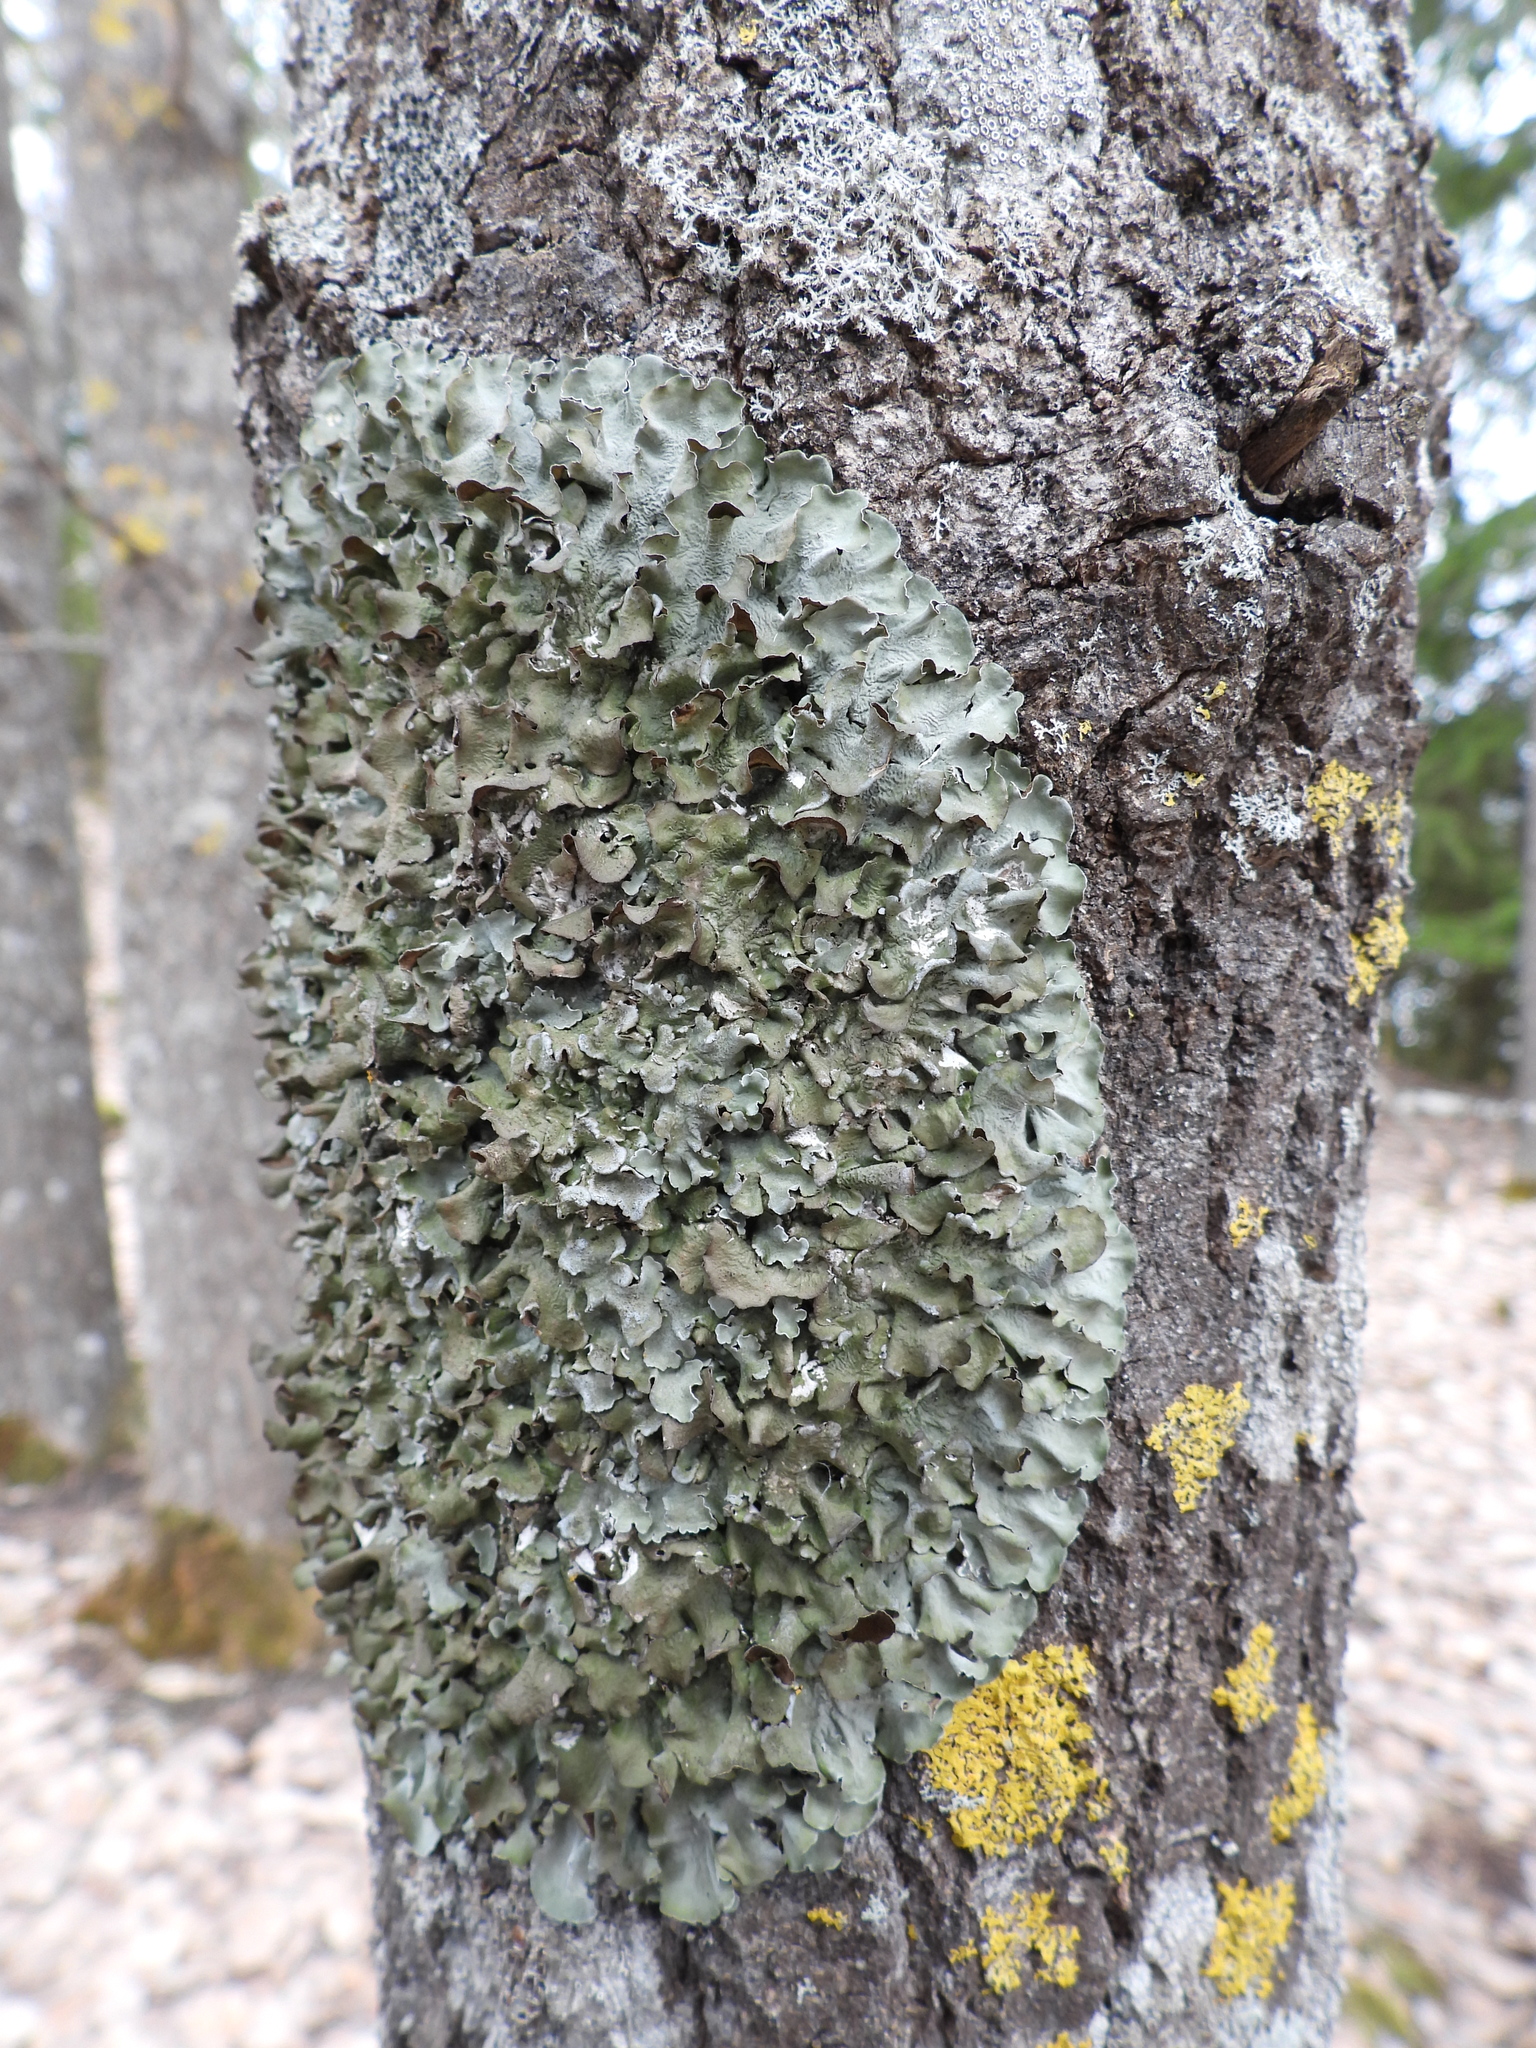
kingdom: Fungi
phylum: Ascomycota
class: Lecanoromycetes
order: Lecanorales
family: Parmeliaceae
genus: Pleurosticta
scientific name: Pleurosticta acetabulum
